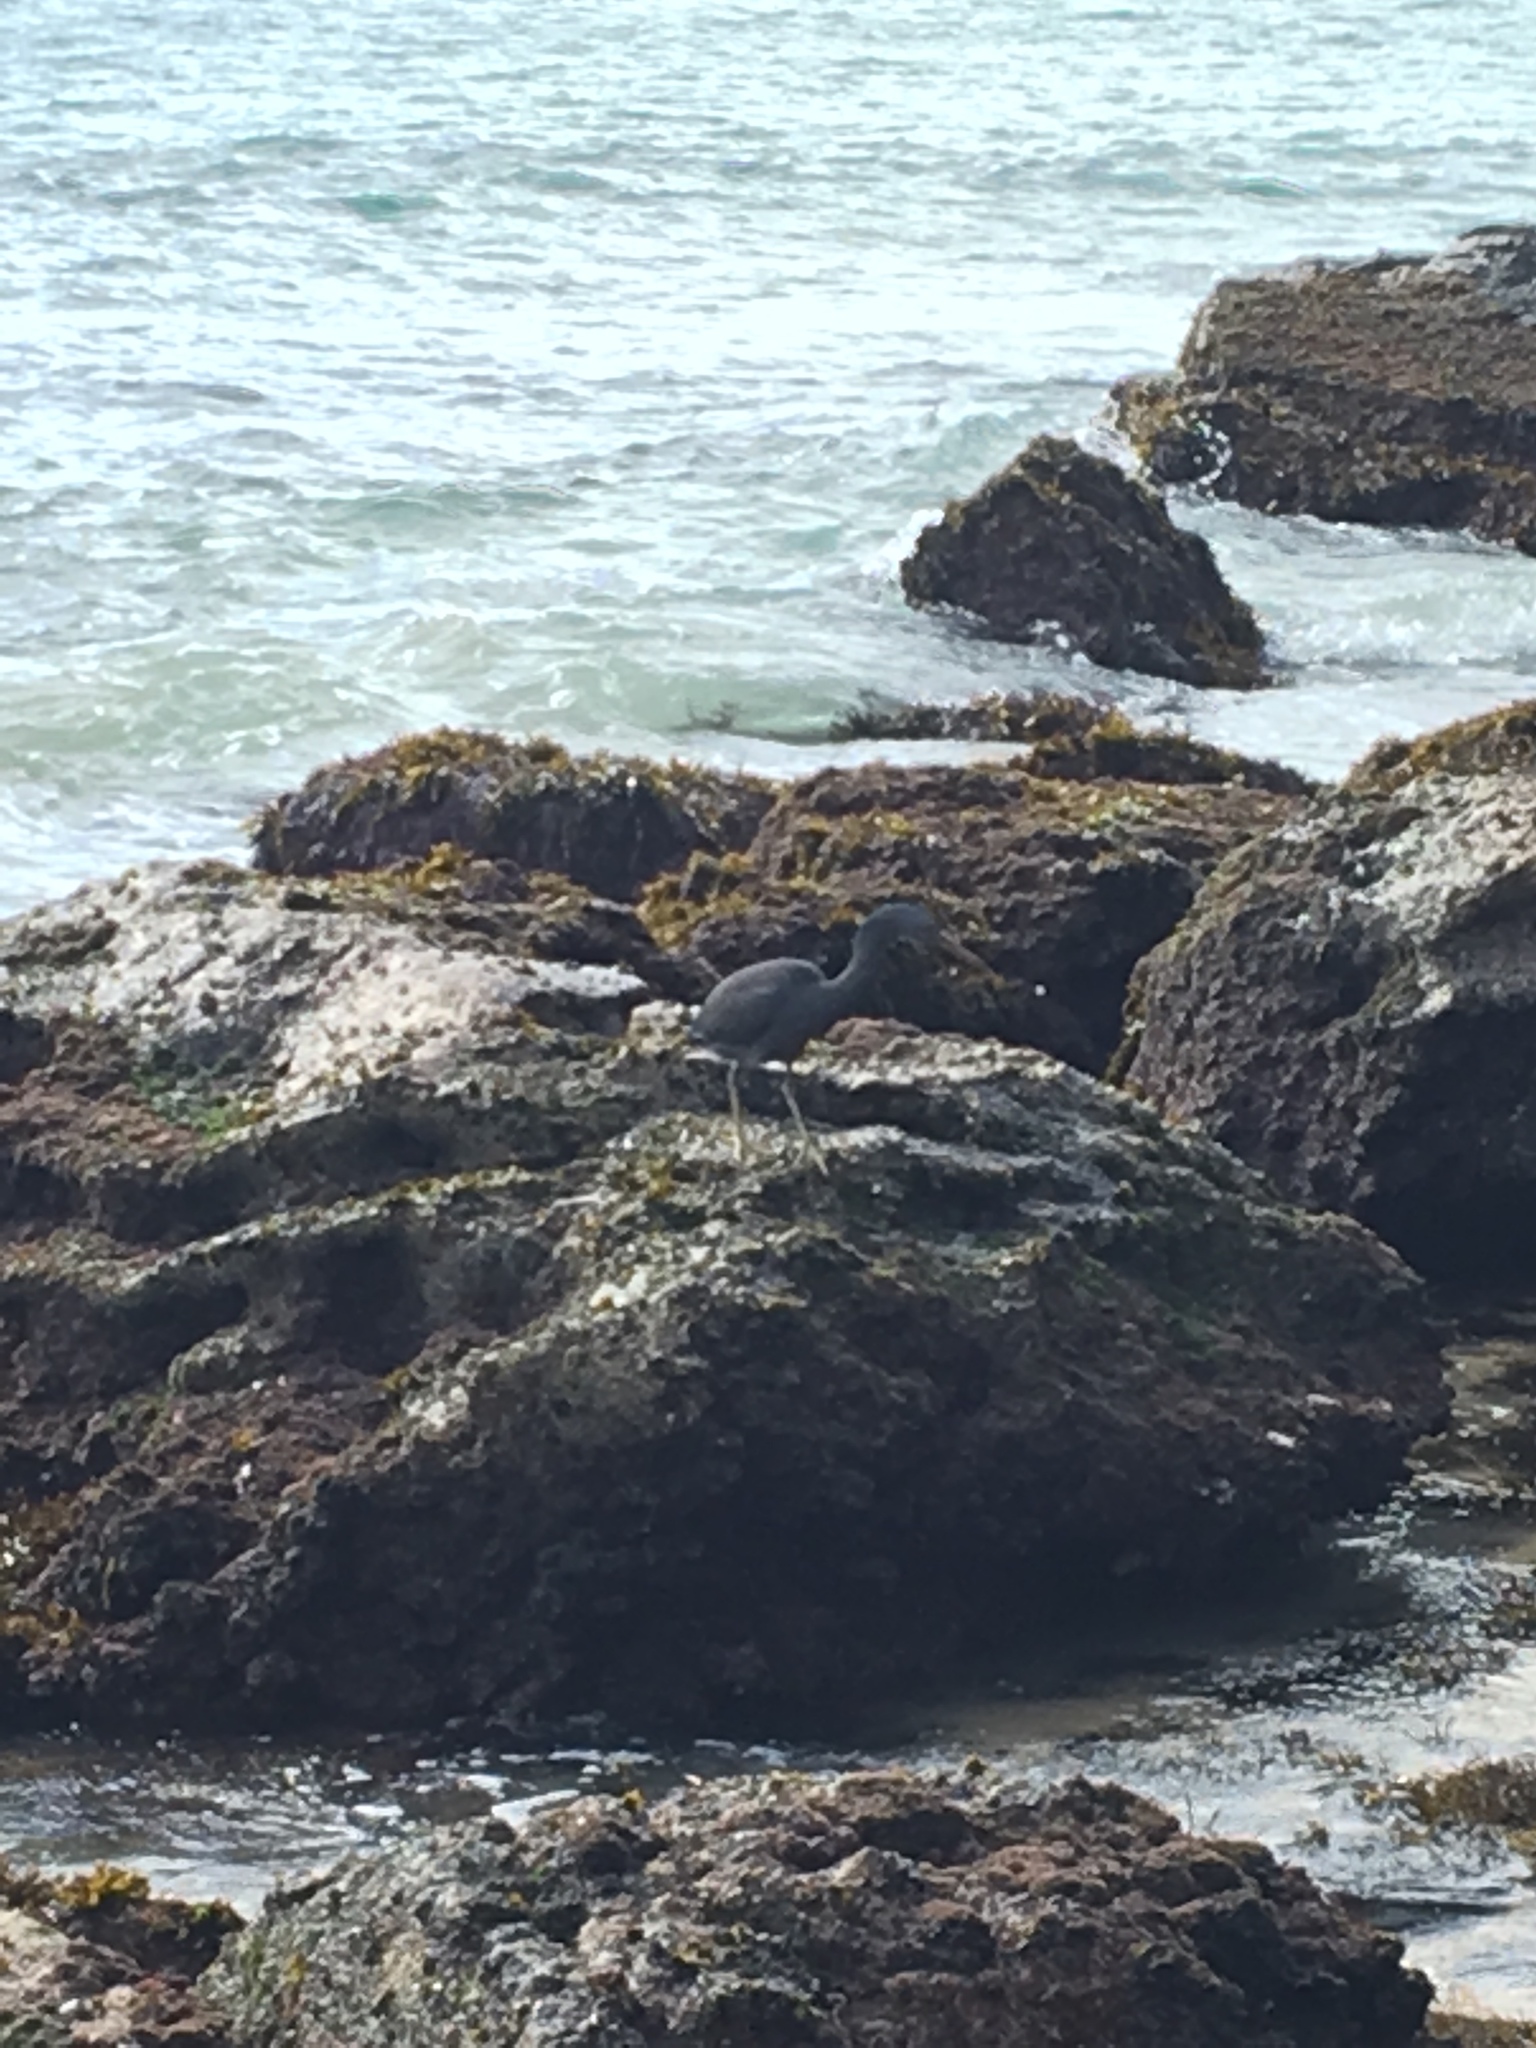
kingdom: Animalia
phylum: Chordata
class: Aves
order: Pelecaniformes
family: Ardeidae
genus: Egretta
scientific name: Egretta sacra
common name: Pacific reef heron
